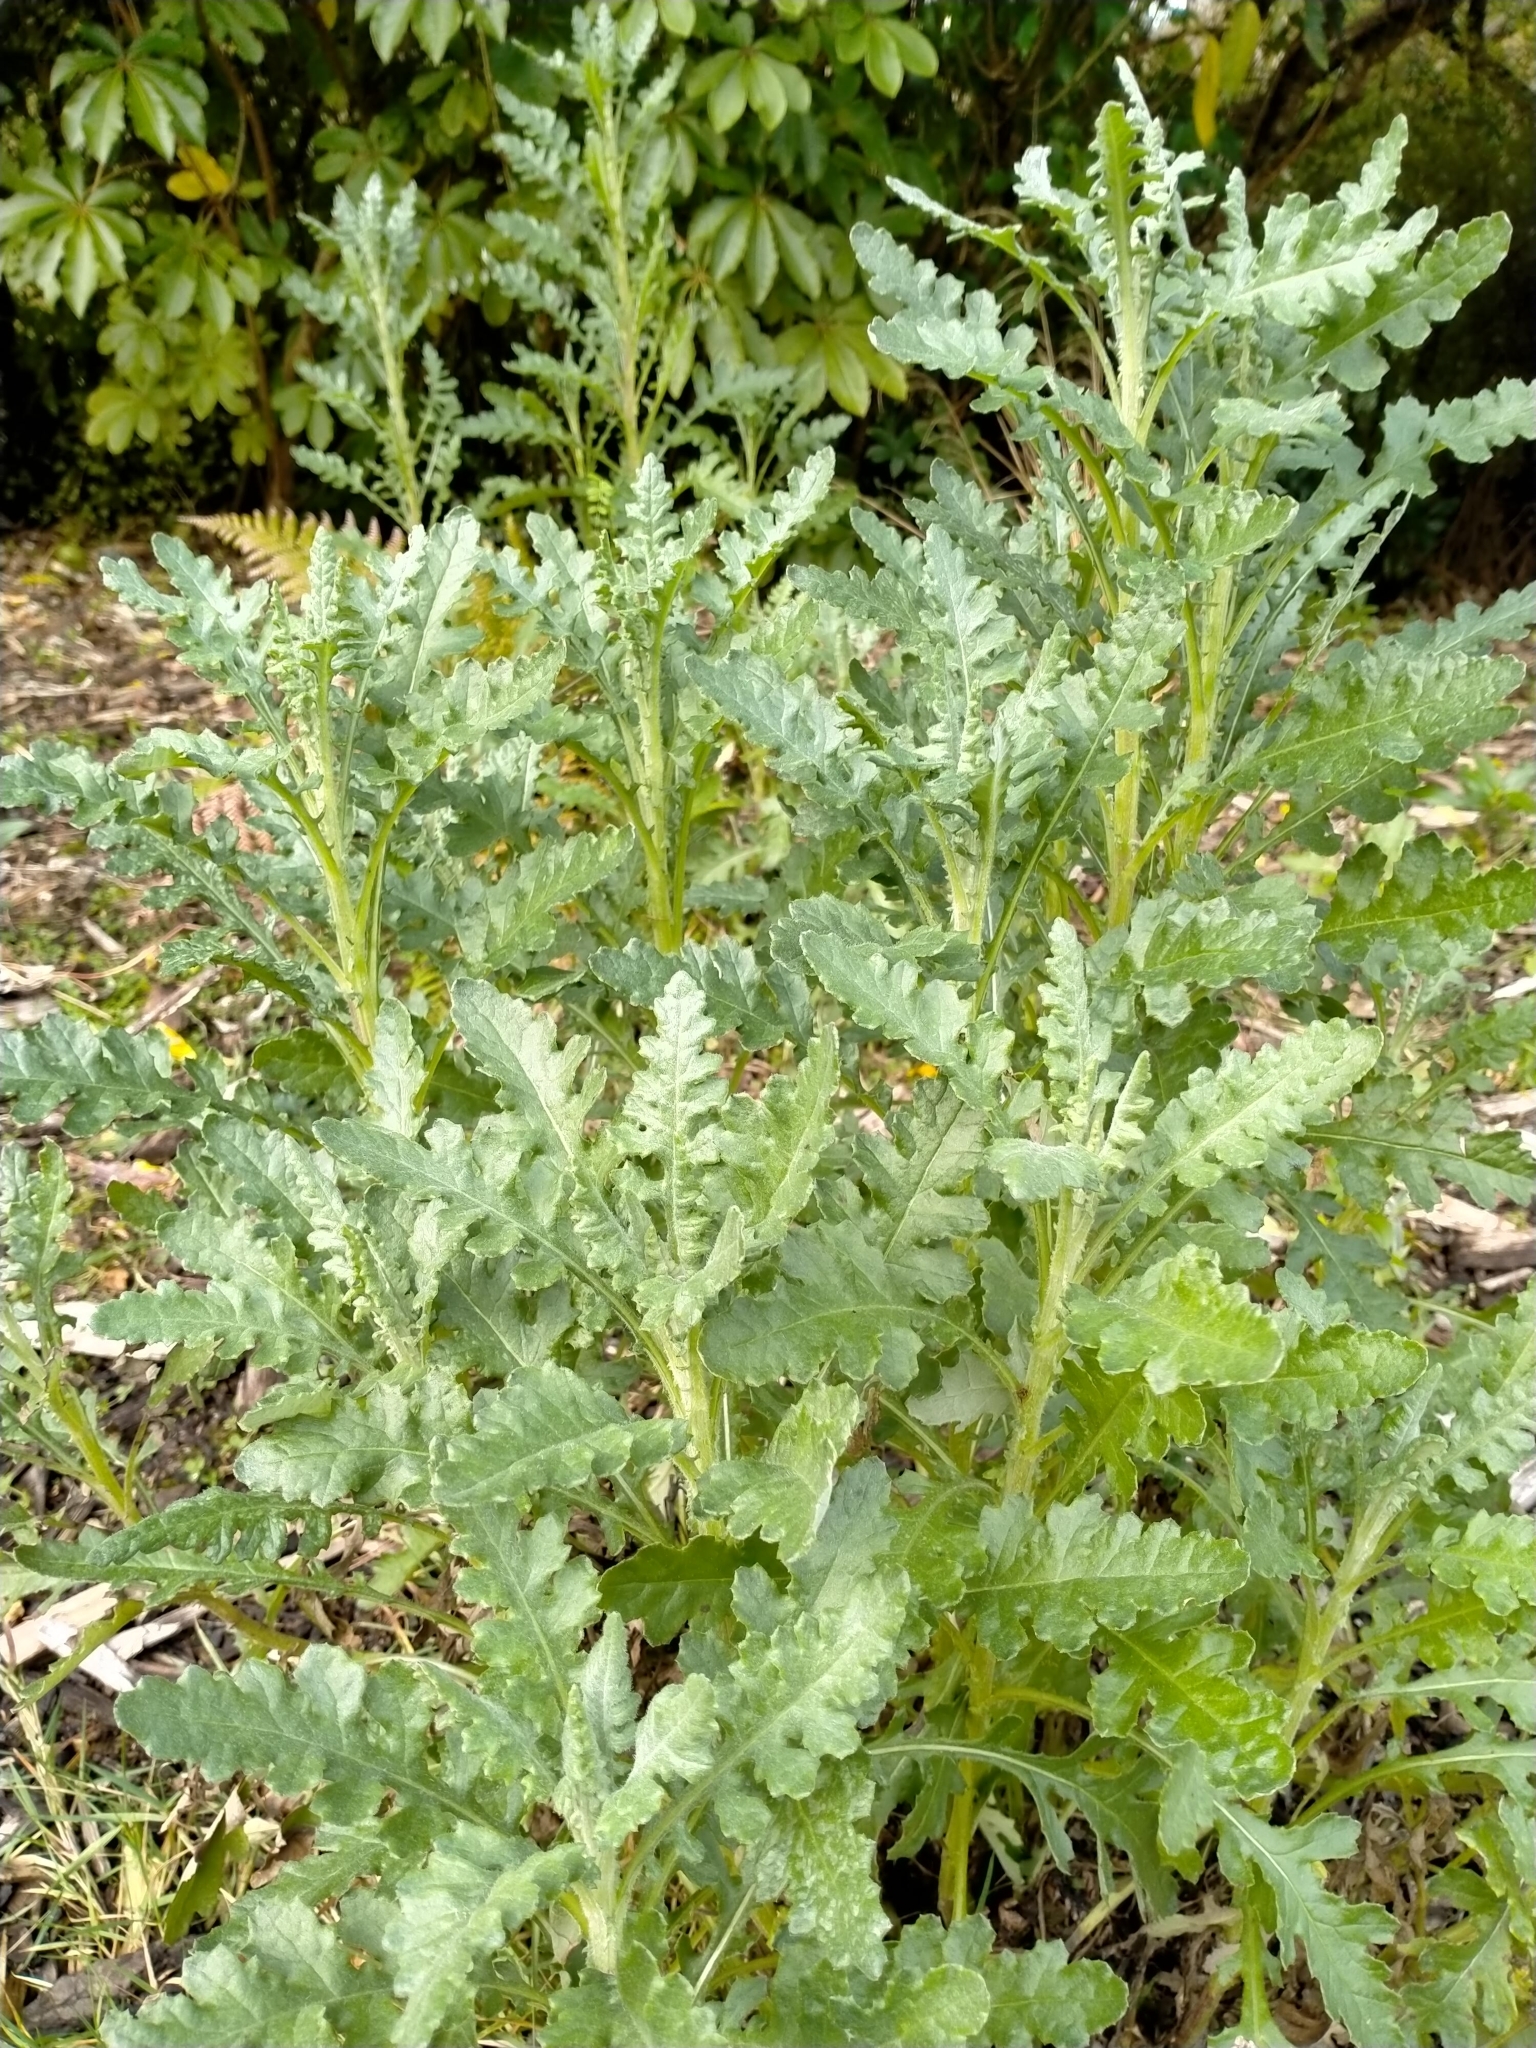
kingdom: Plantae
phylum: Tracheophyta
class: Magnoliopsida
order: Asterales
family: Asteraceae
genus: Senecio
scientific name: Senecio glomeratus
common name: Cutleaf burnweed
